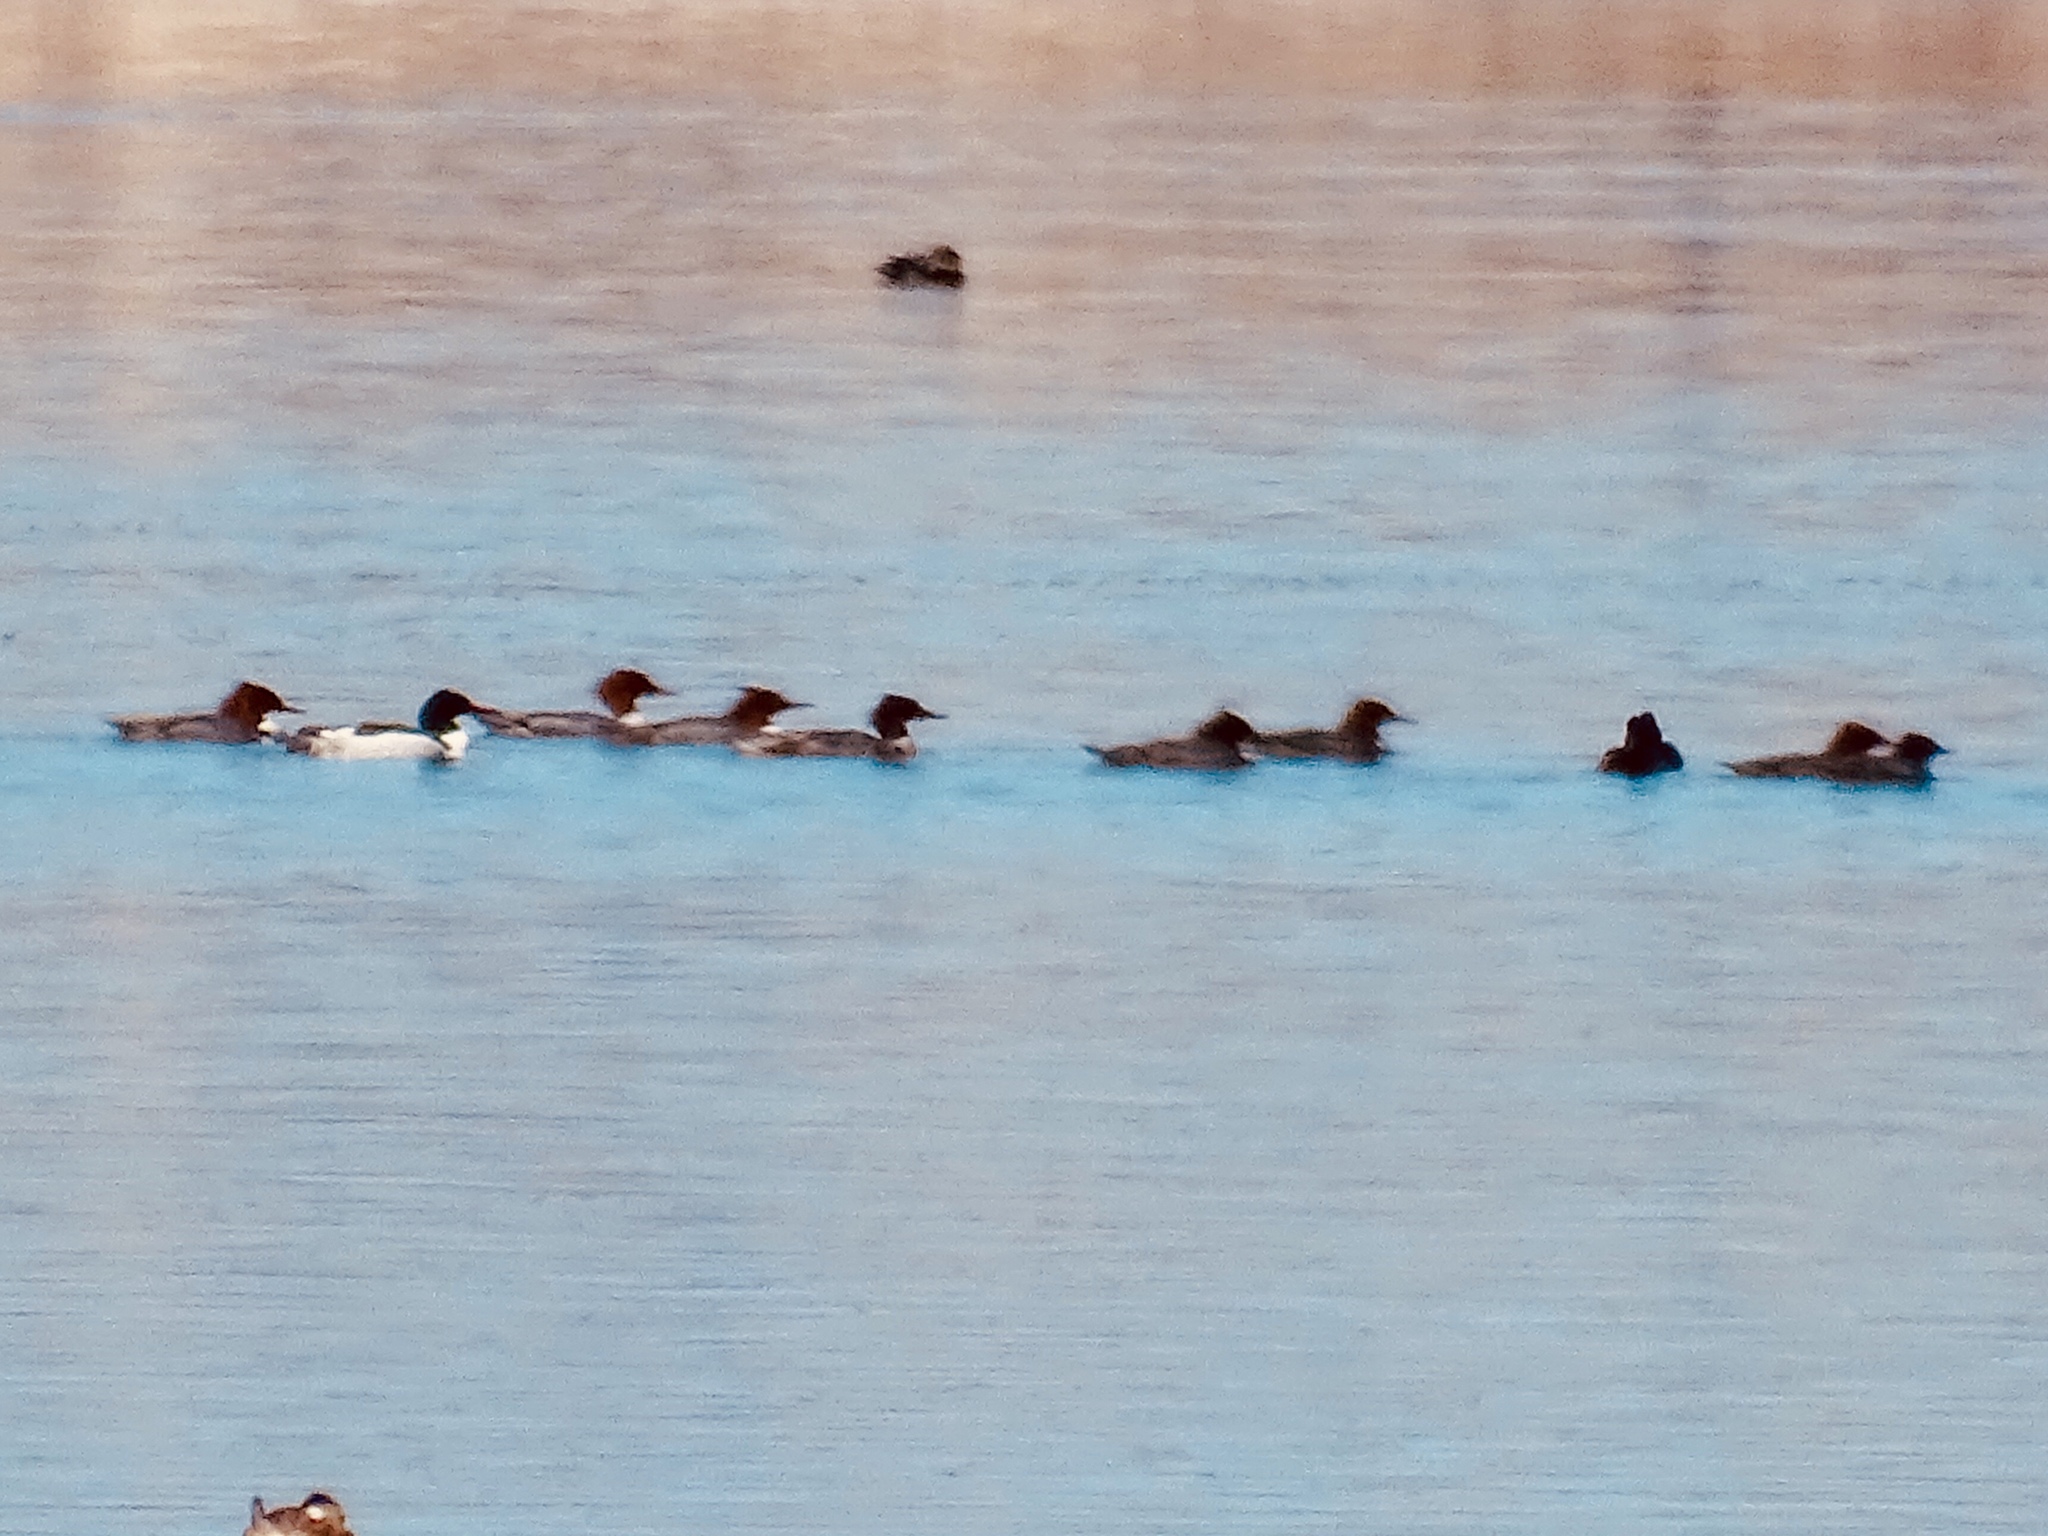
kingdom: Animalia
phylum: Chordata
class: Aves
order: Anseriformes
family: Anatidae
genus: Mergus
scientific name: Mergus merganser
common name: Common merganser
